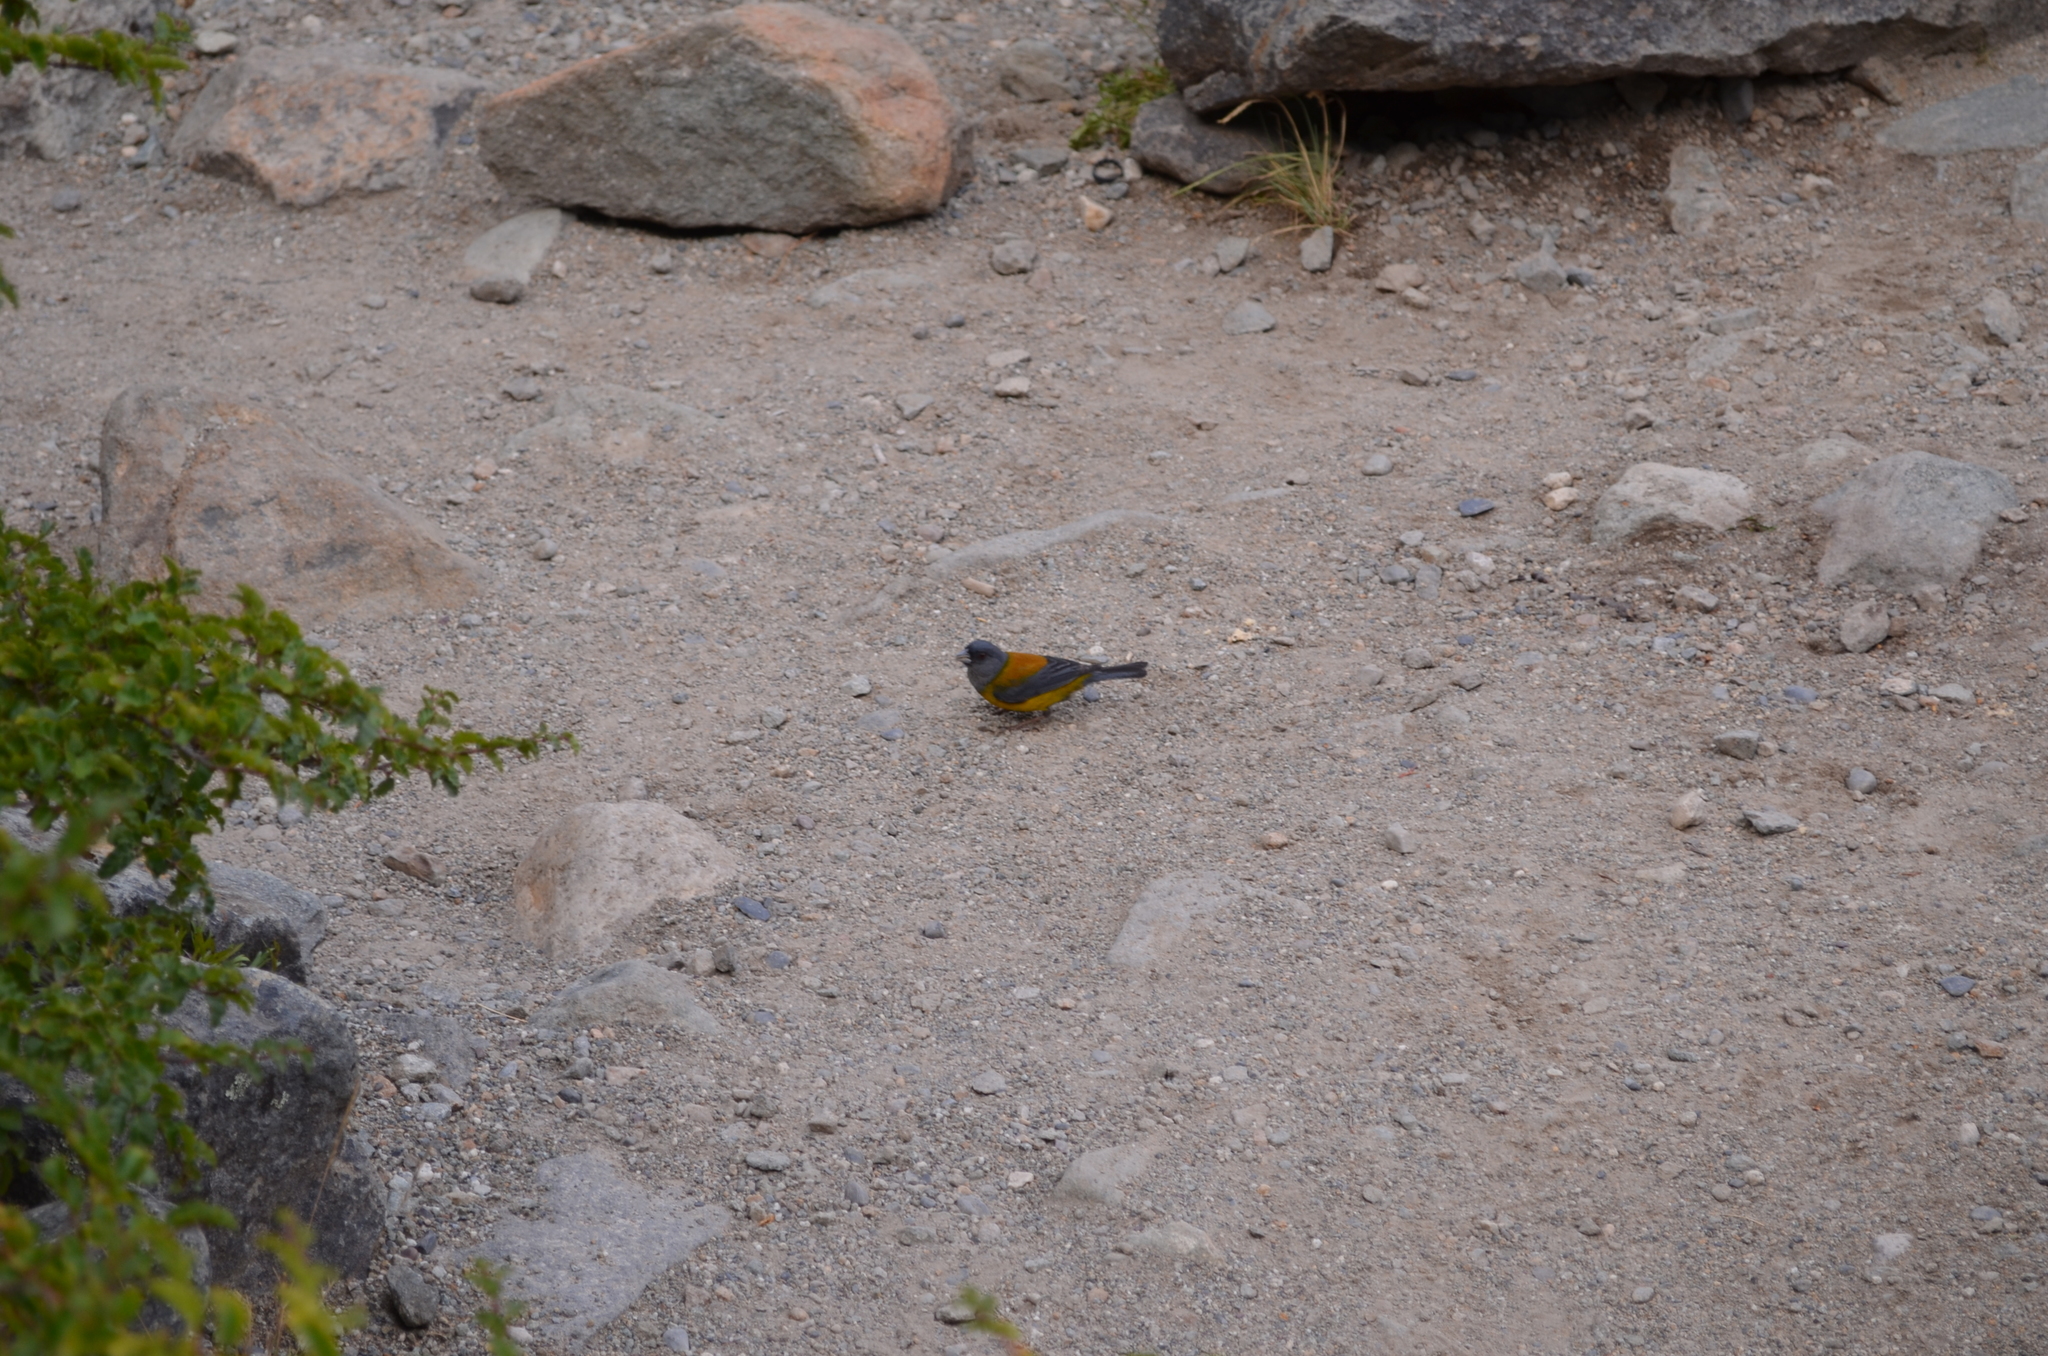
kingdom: Animalia
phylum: Chordata
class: Aves
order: Passeriformes
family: Thraupidae
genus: Phrygilus
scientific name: Phrygilus patagonicus
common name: Patagonian sierra finch
